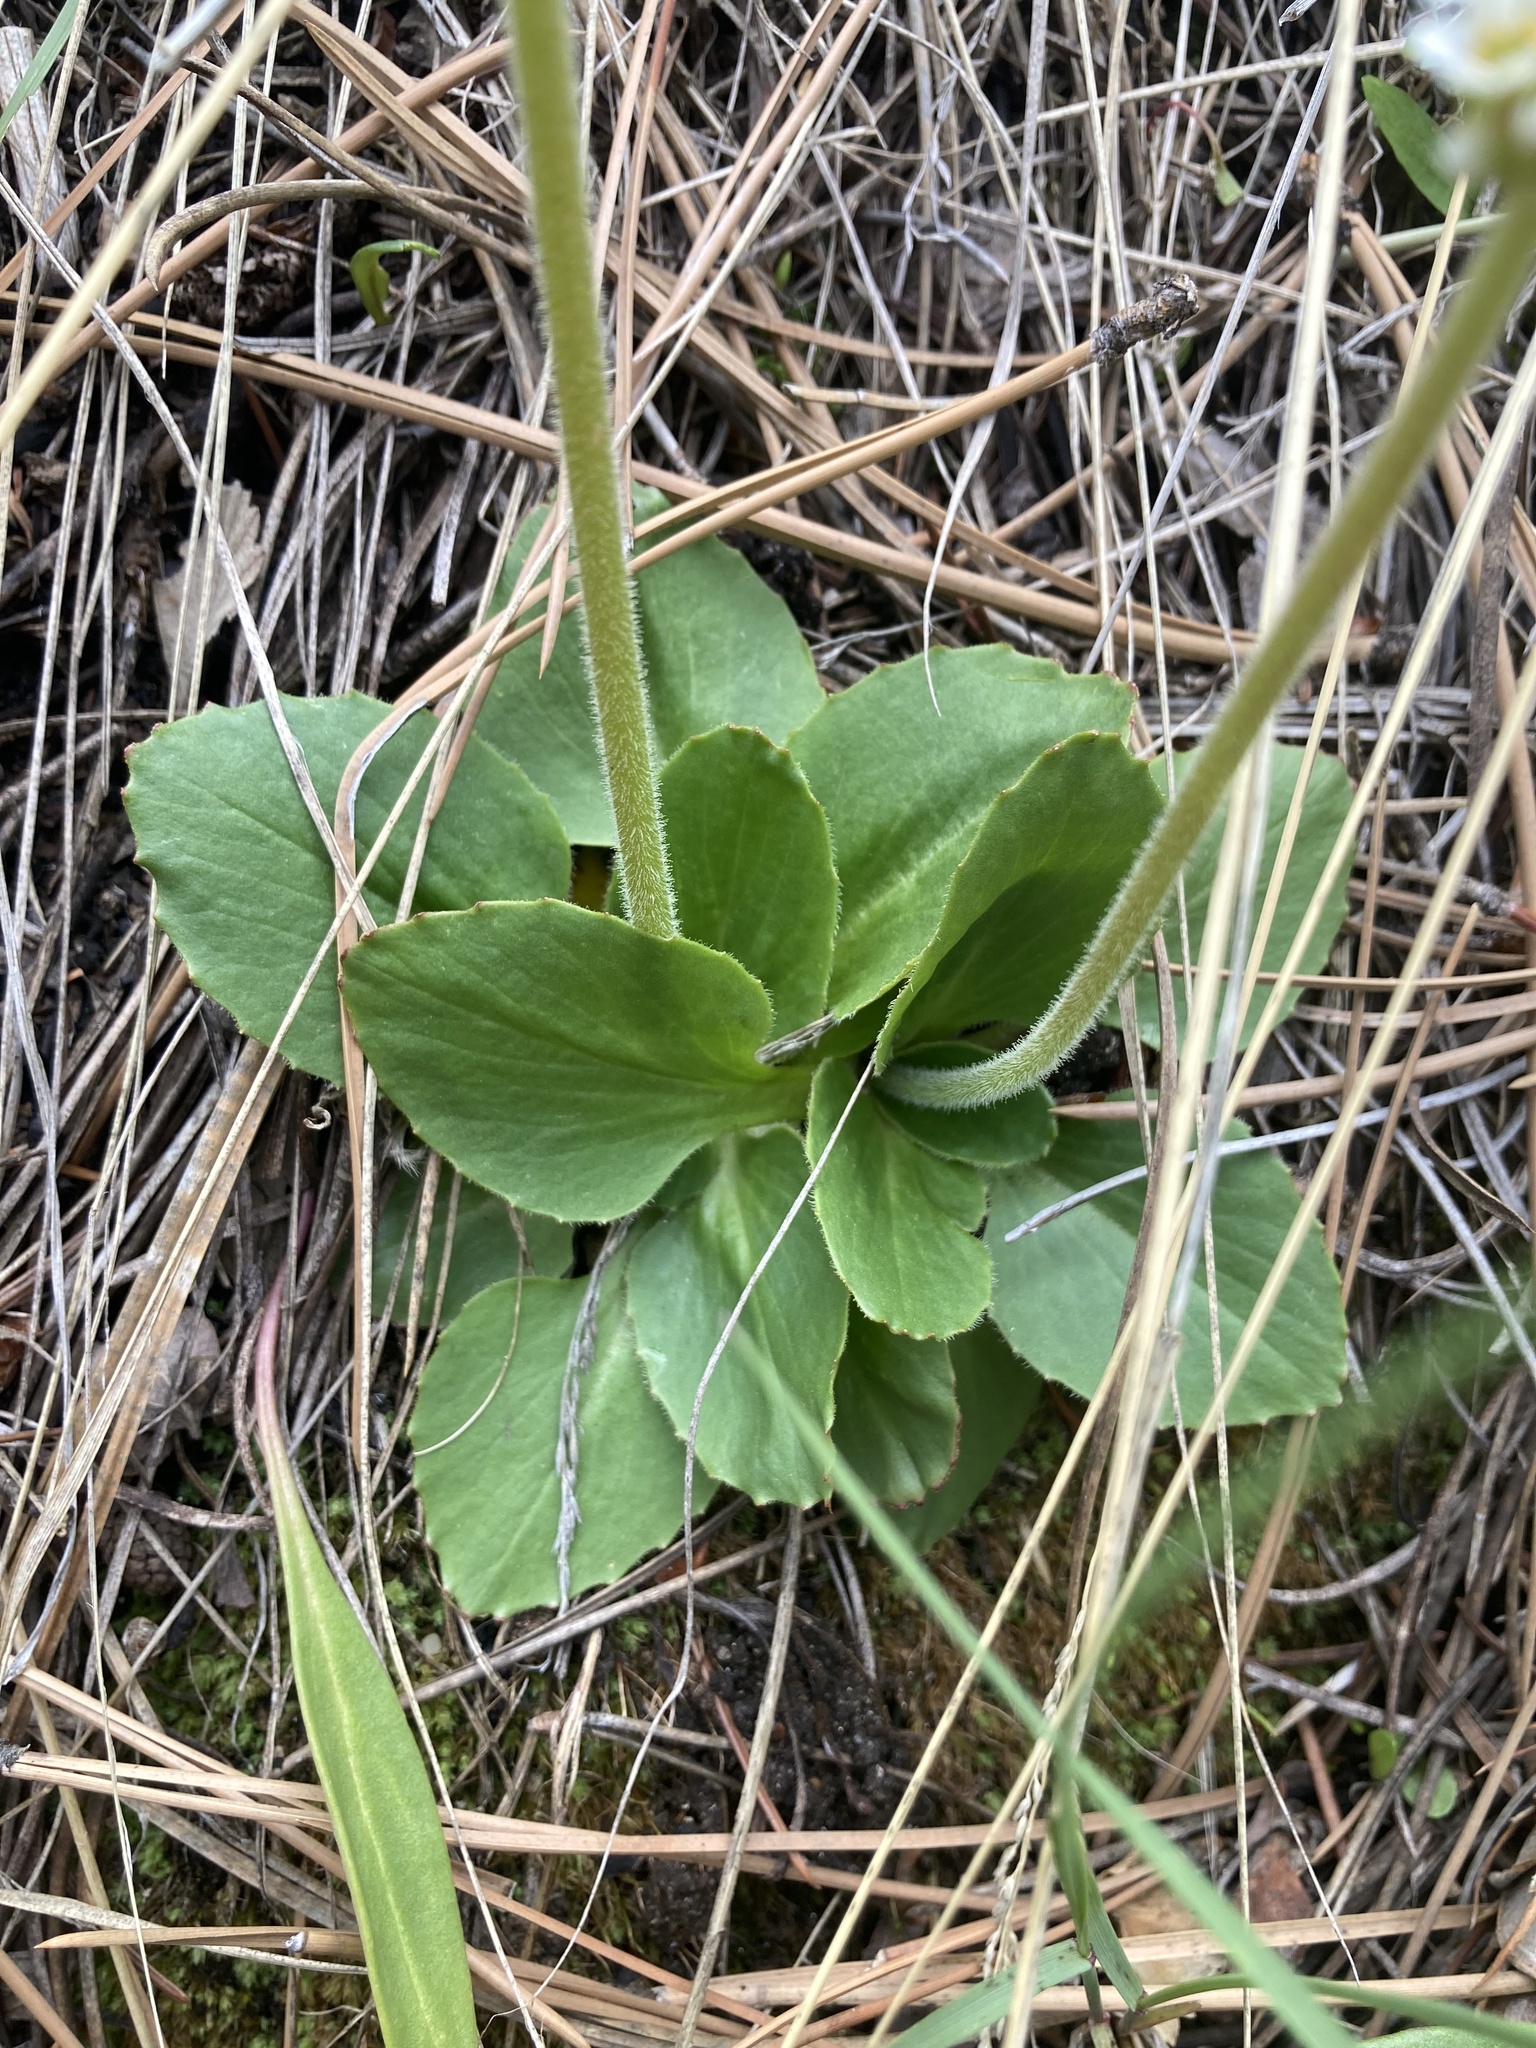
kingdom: Plantae
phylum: Tracheophyta
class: Magnoliopsida
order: Saxifragales
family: Saxifragaceae
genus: Micranthes
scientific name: Micranthes rhomboidea
